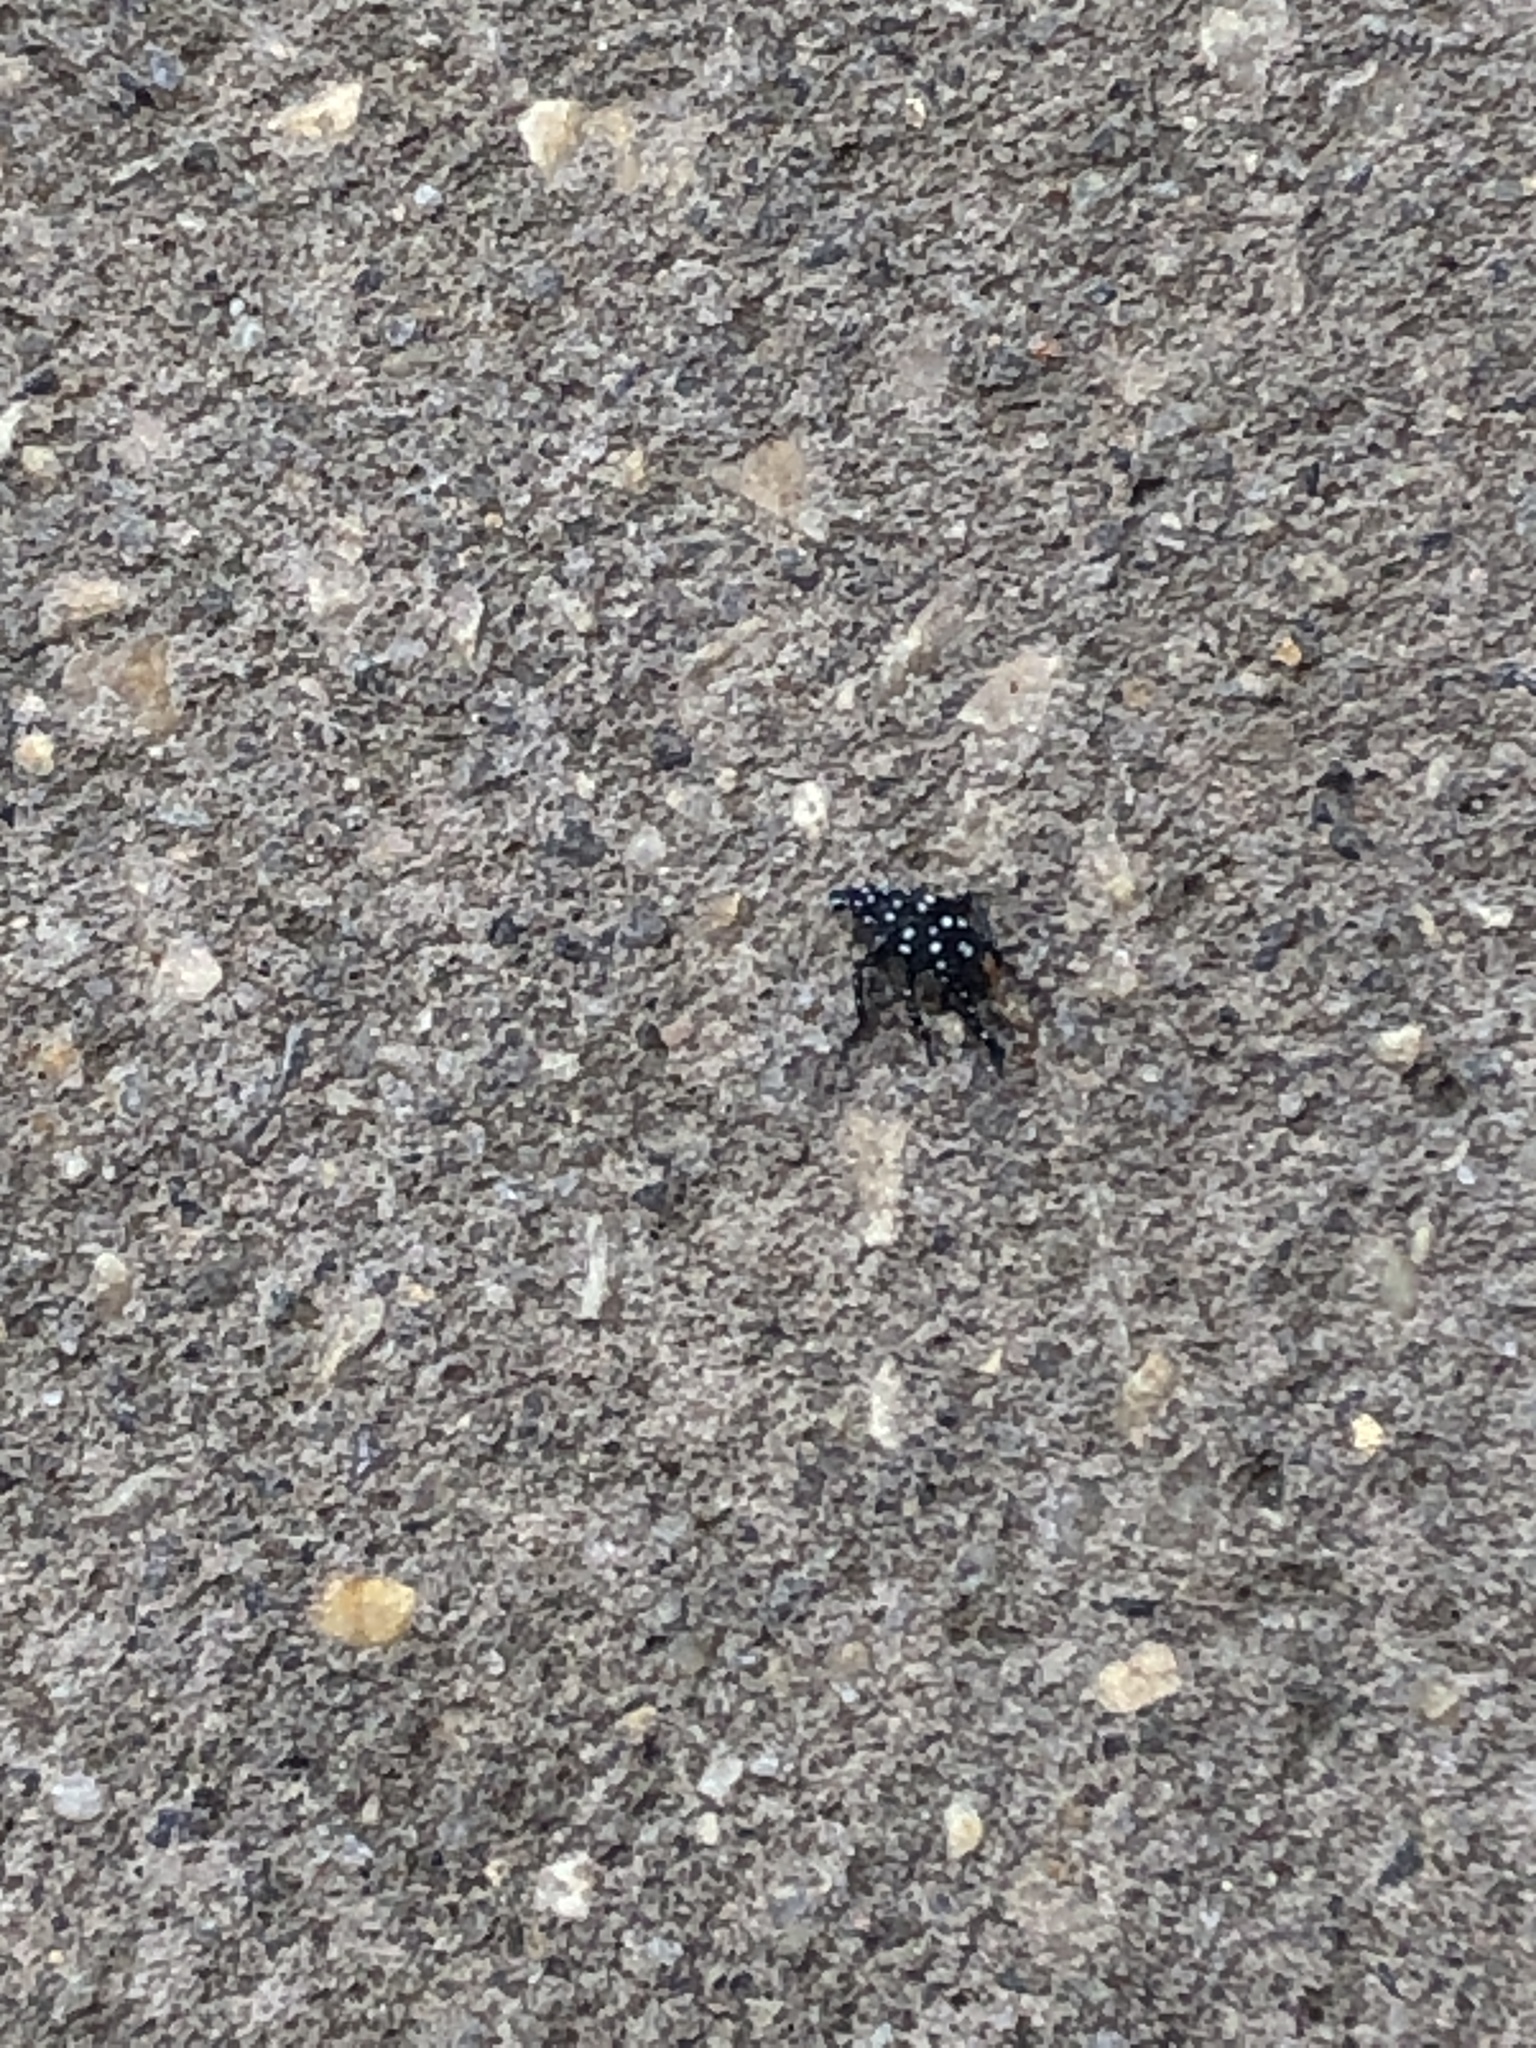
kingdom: Animalia
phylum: Arthropoda
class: Insecta
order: Hemiptera
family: Fulgoridae
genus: Lycorma
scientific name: Lycorma delicatula
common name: Spotted lanternfly
